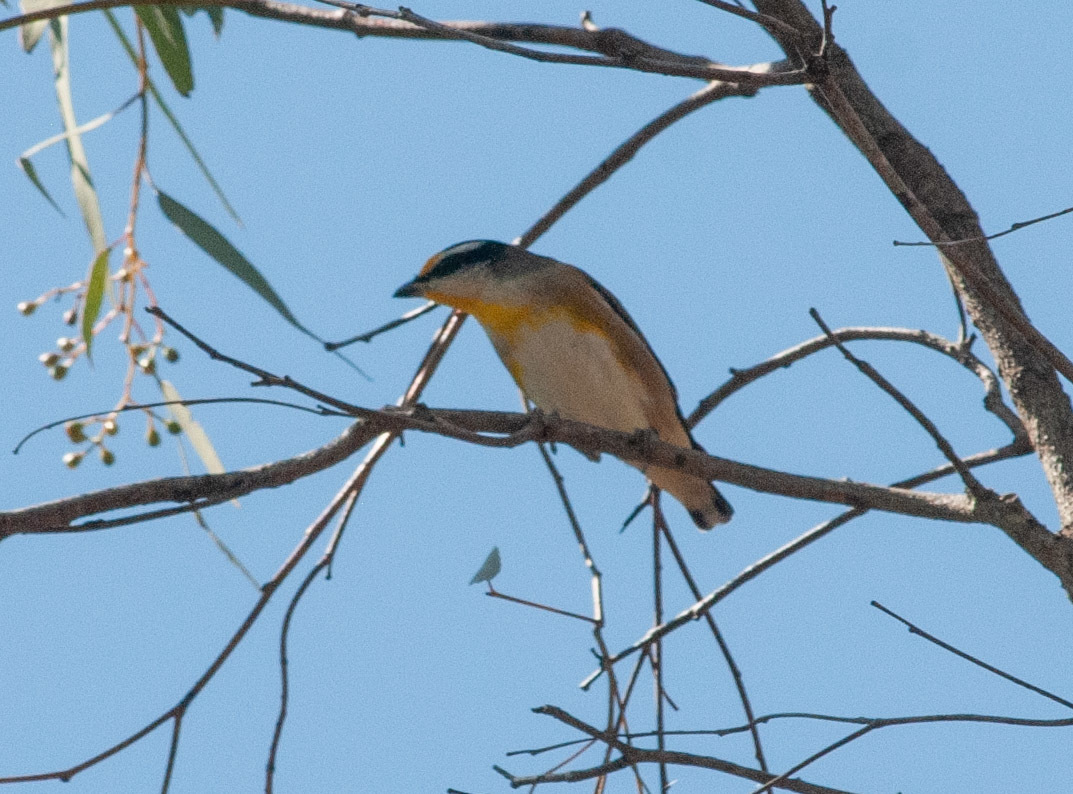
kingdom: Animalia
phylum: Chordata
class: Aves
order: Passeriformes
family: Pardalotidae
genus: Pardalotus
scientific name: Pardalotus striatus
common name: Striated pardalote
